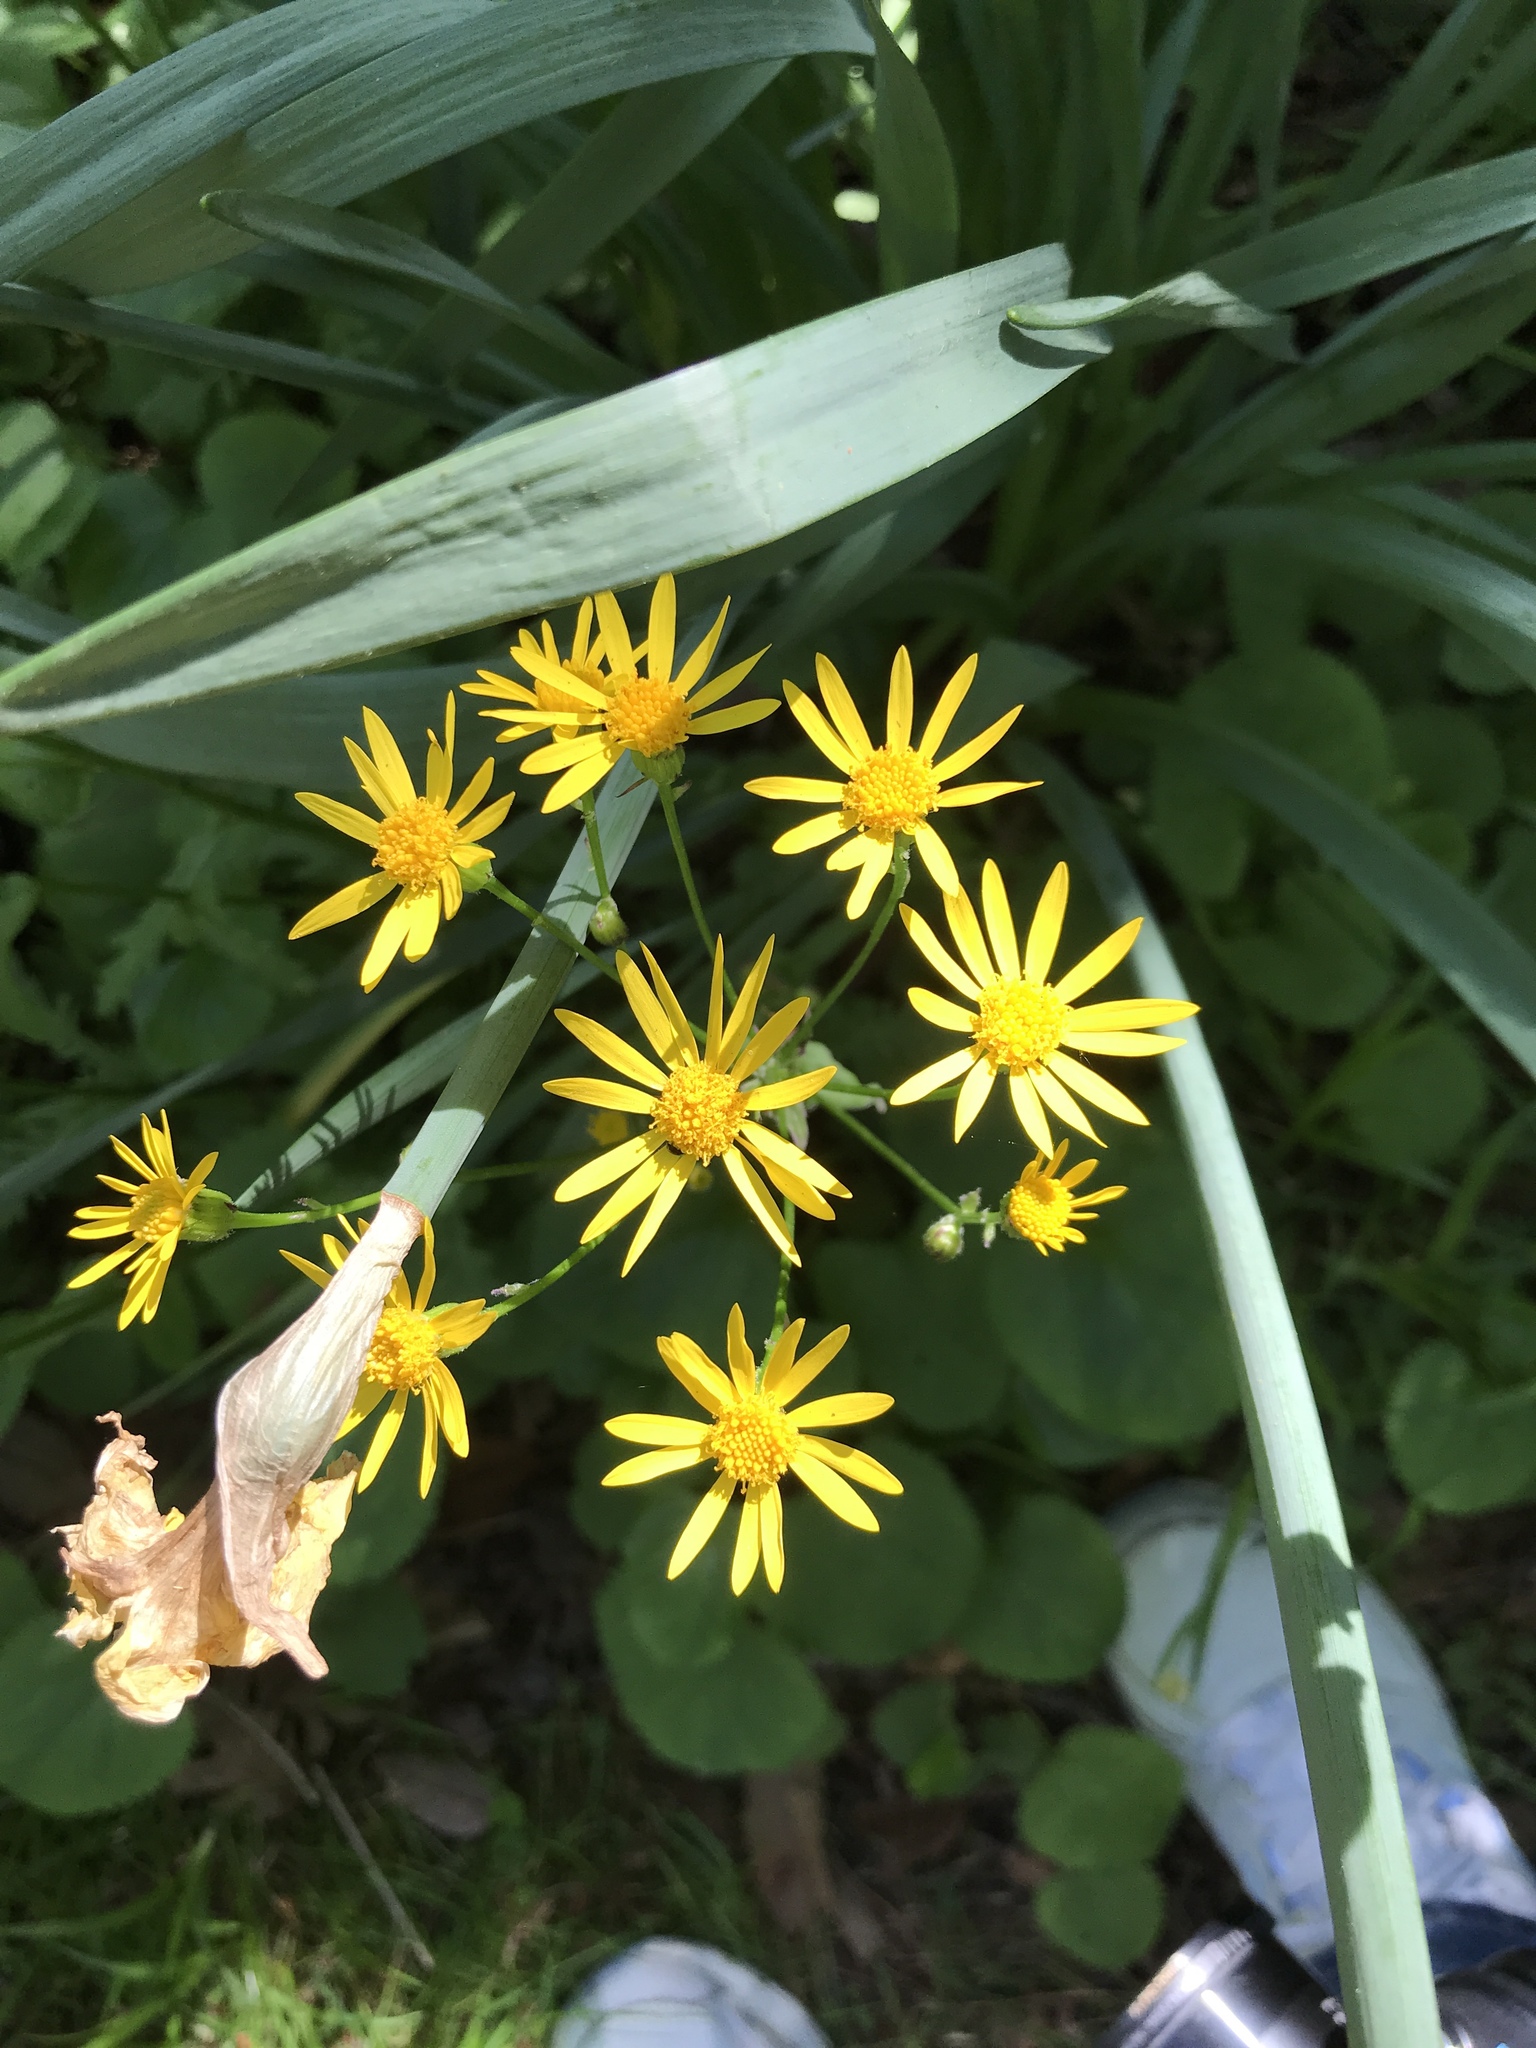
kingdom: Plantae
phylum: Tracheophyta
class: Magnoliopsida
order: Asterales
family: Asteraceae
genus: Packera
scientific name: Packera aurea
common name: Golden groundsel
